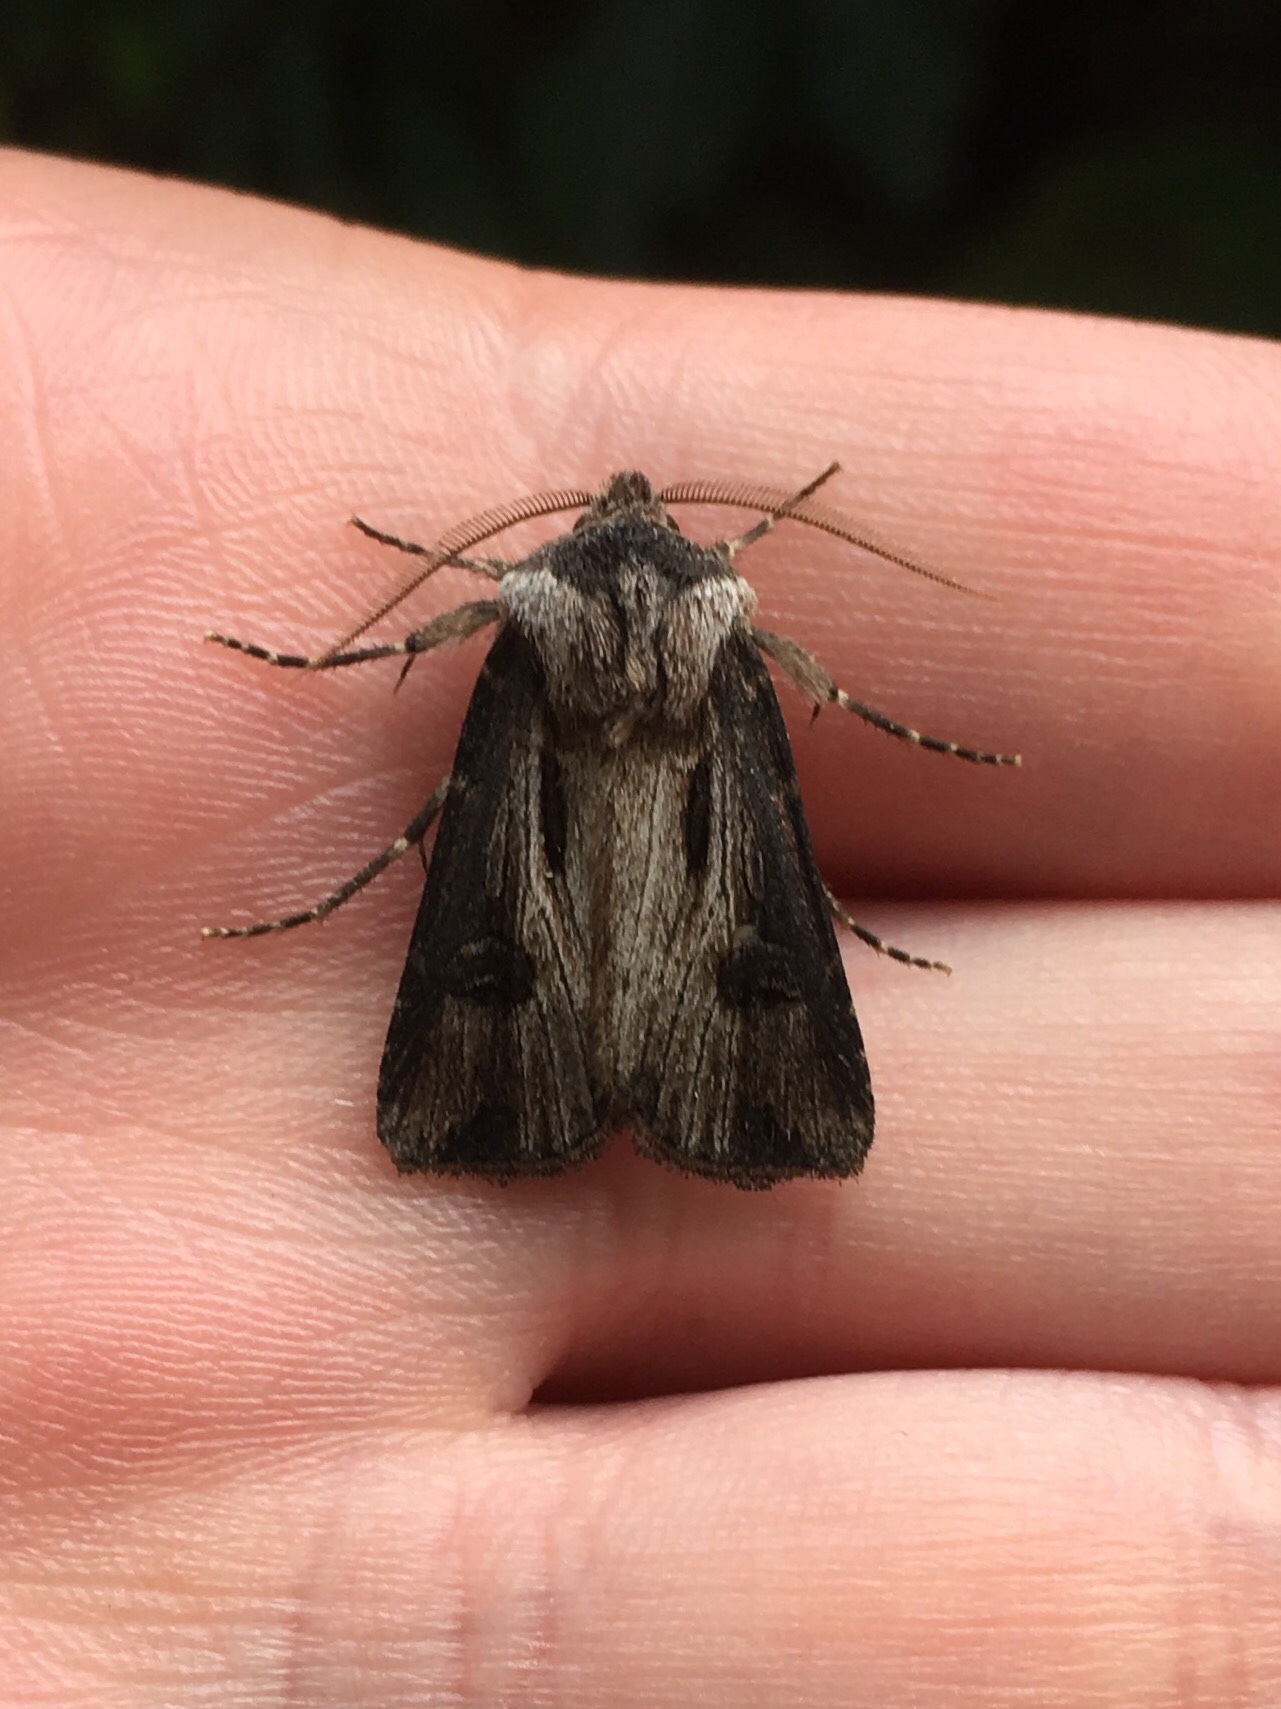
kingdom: Animalia
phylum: Arthropoda
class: Insecta
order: Lepidoptera
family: Noctuidae
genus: Agrotis
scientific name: Agrotis venerabilis
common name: Venerable dart
